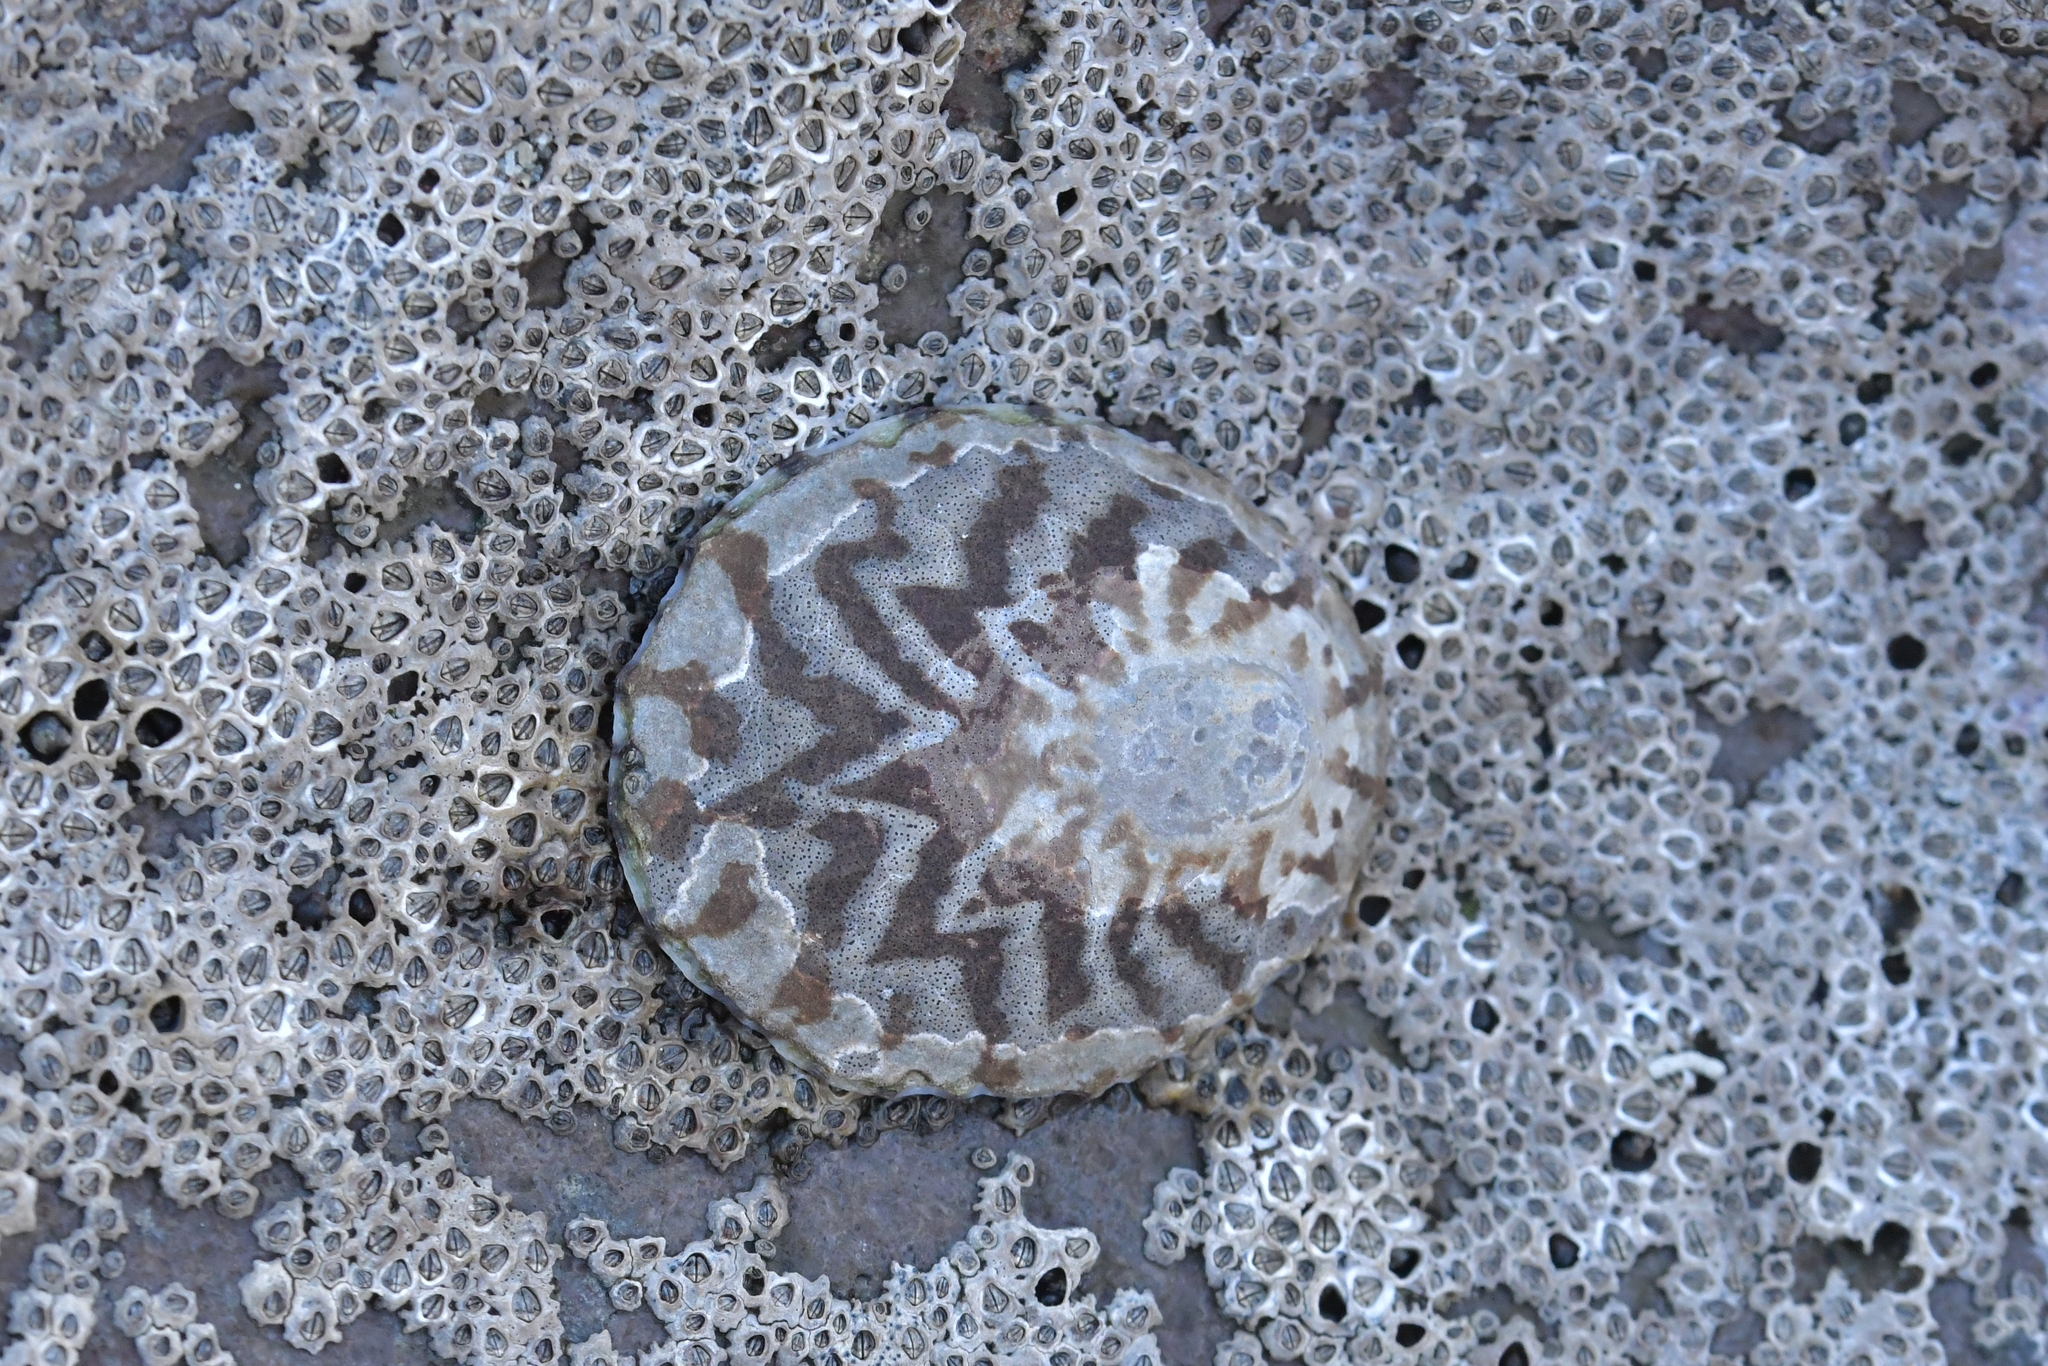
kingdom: Animalia
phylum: Mollusca
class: Gastropoda
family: Nacellidae
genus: Cellana
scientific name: Cellana radians
